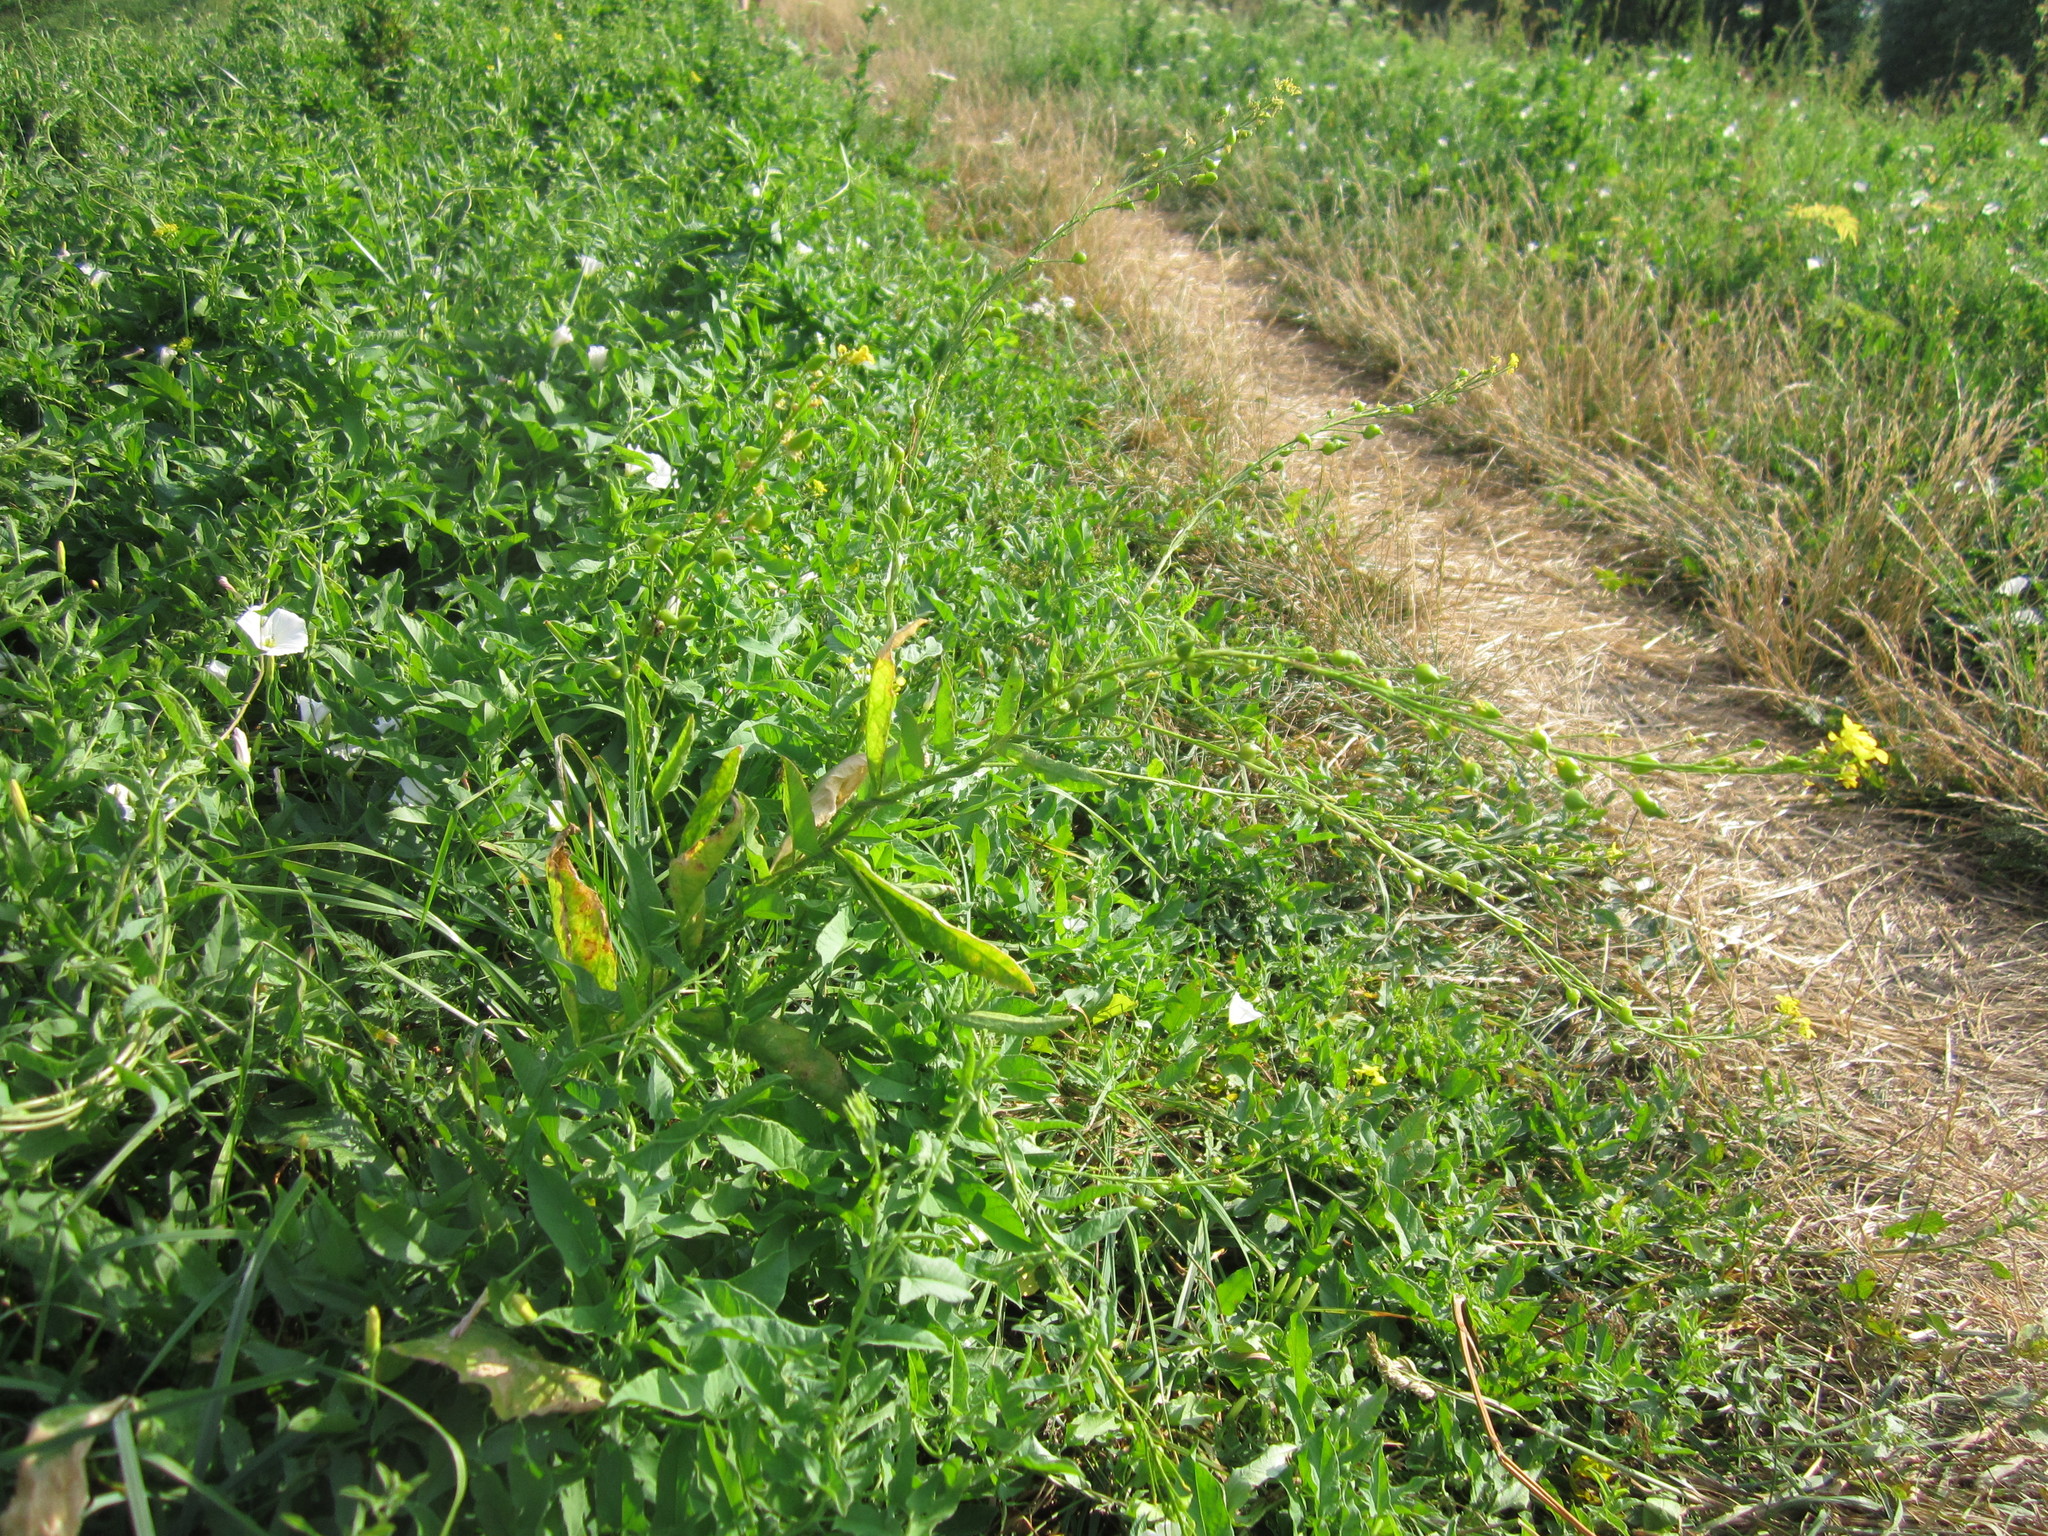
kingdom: Plantae
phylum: Tracheophyta
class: Magnoliopsida
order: Brassicales
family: Brassicaceae
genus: Bunias
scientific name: Bunias orientalis
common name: Warty-cabbage
